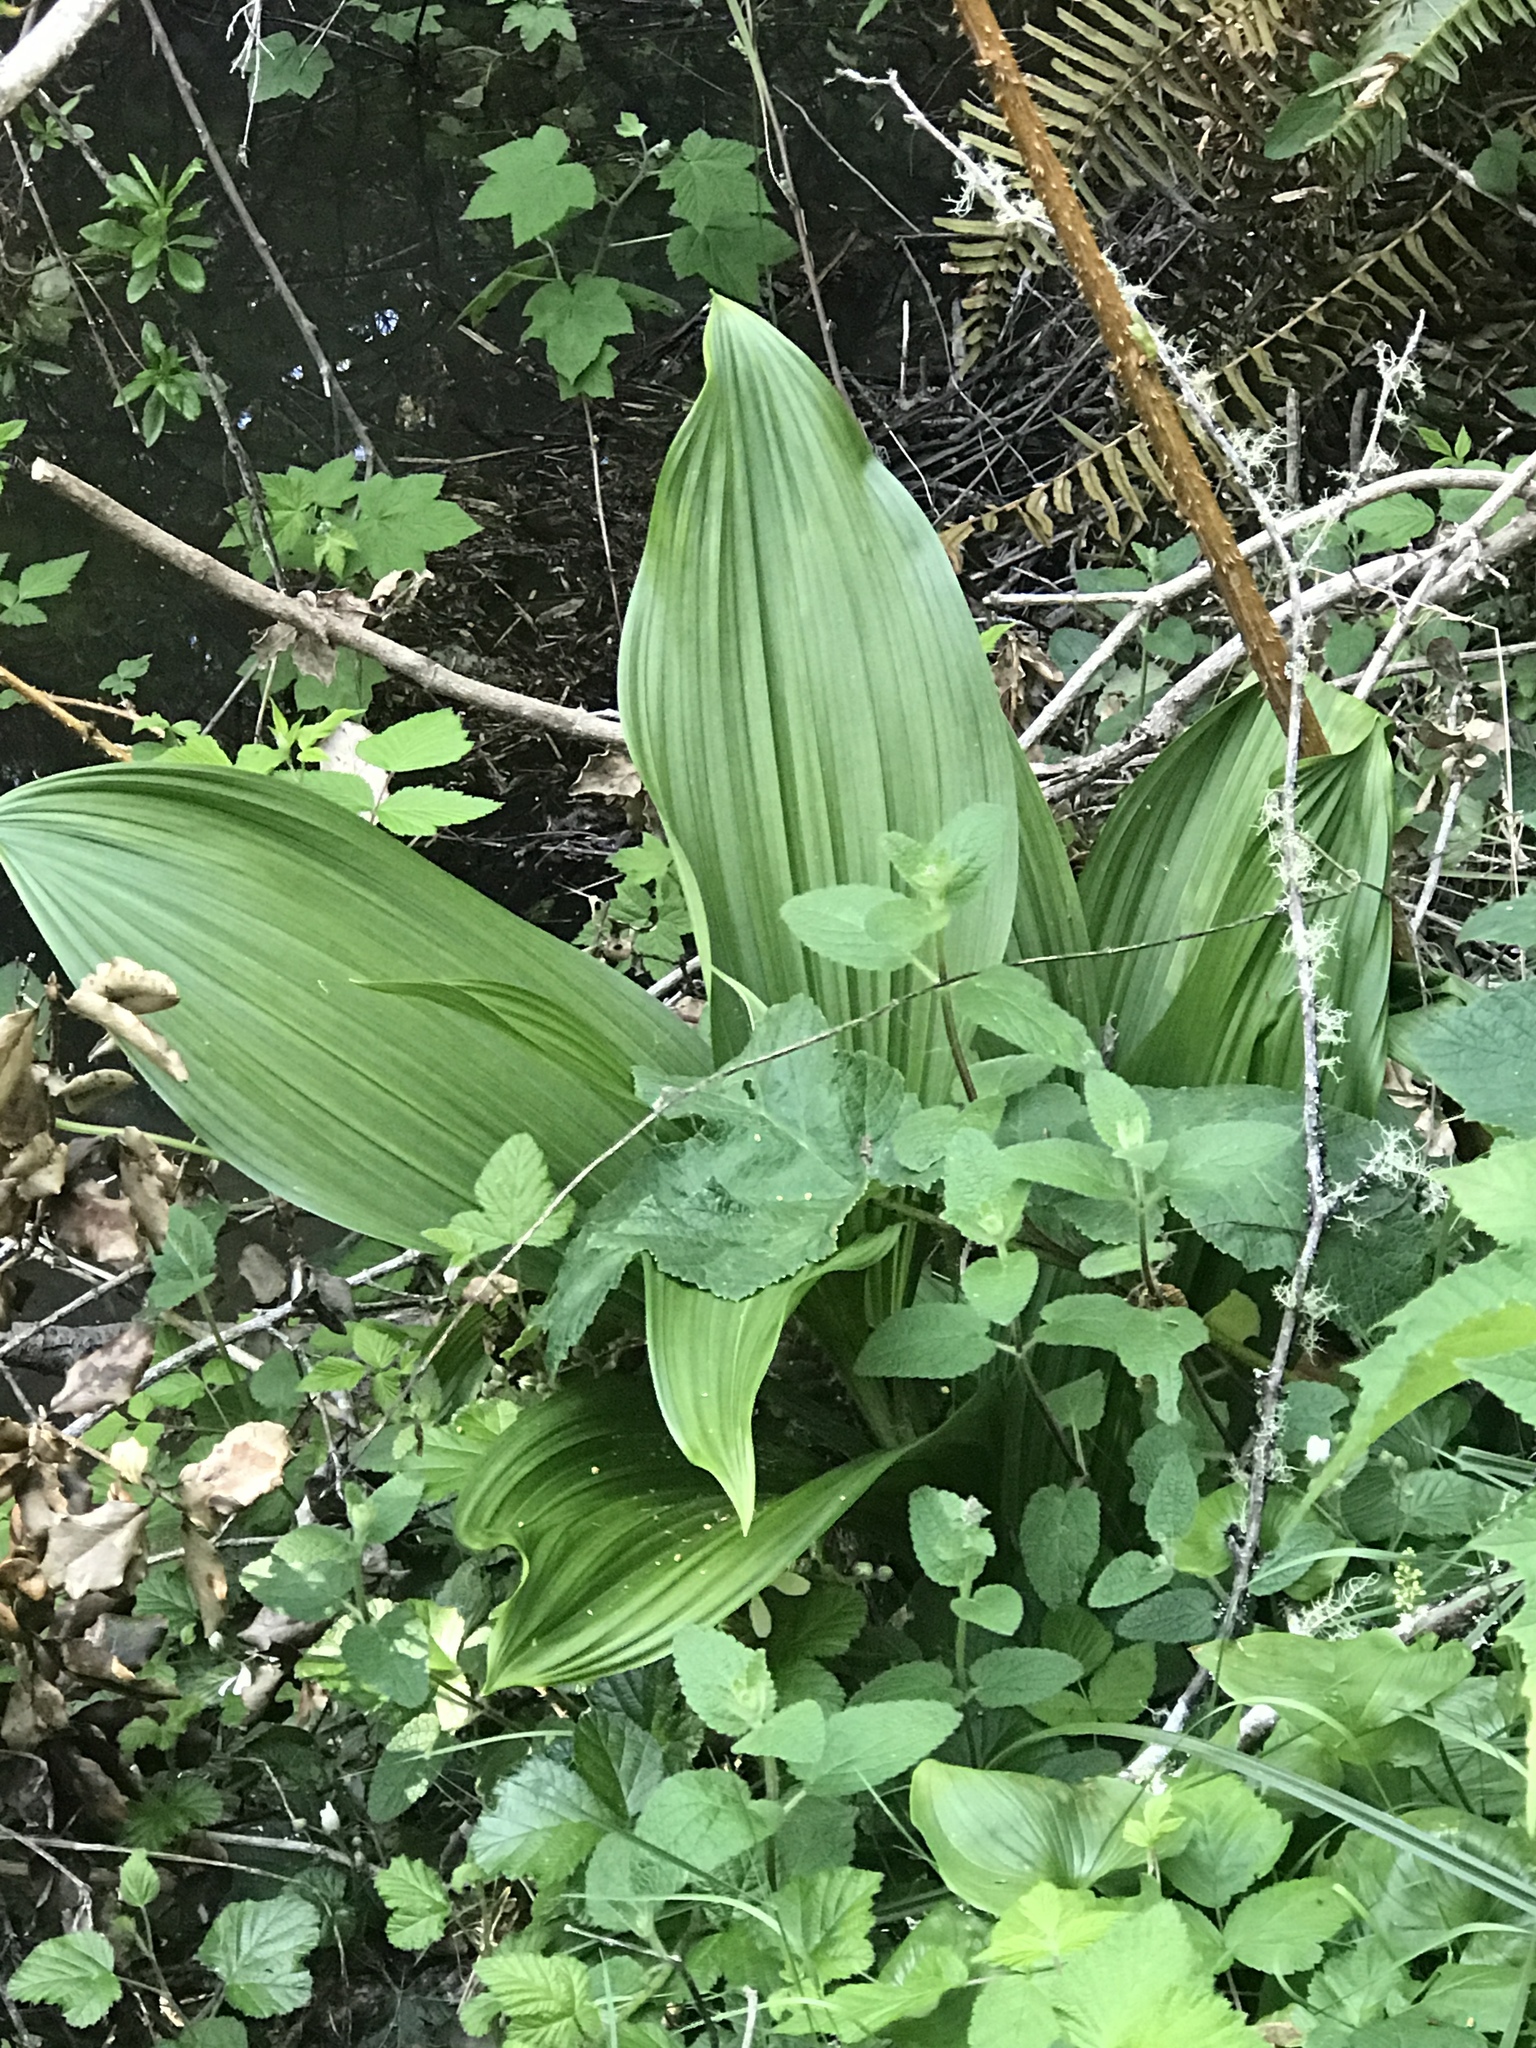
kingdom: Plantae
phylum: Tracheophyta
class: Liliopsida
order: Liliales
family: Melanthiaceae
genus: Veratrum
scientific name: Veratrum fimbriatum
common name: Fringe false hellobore
